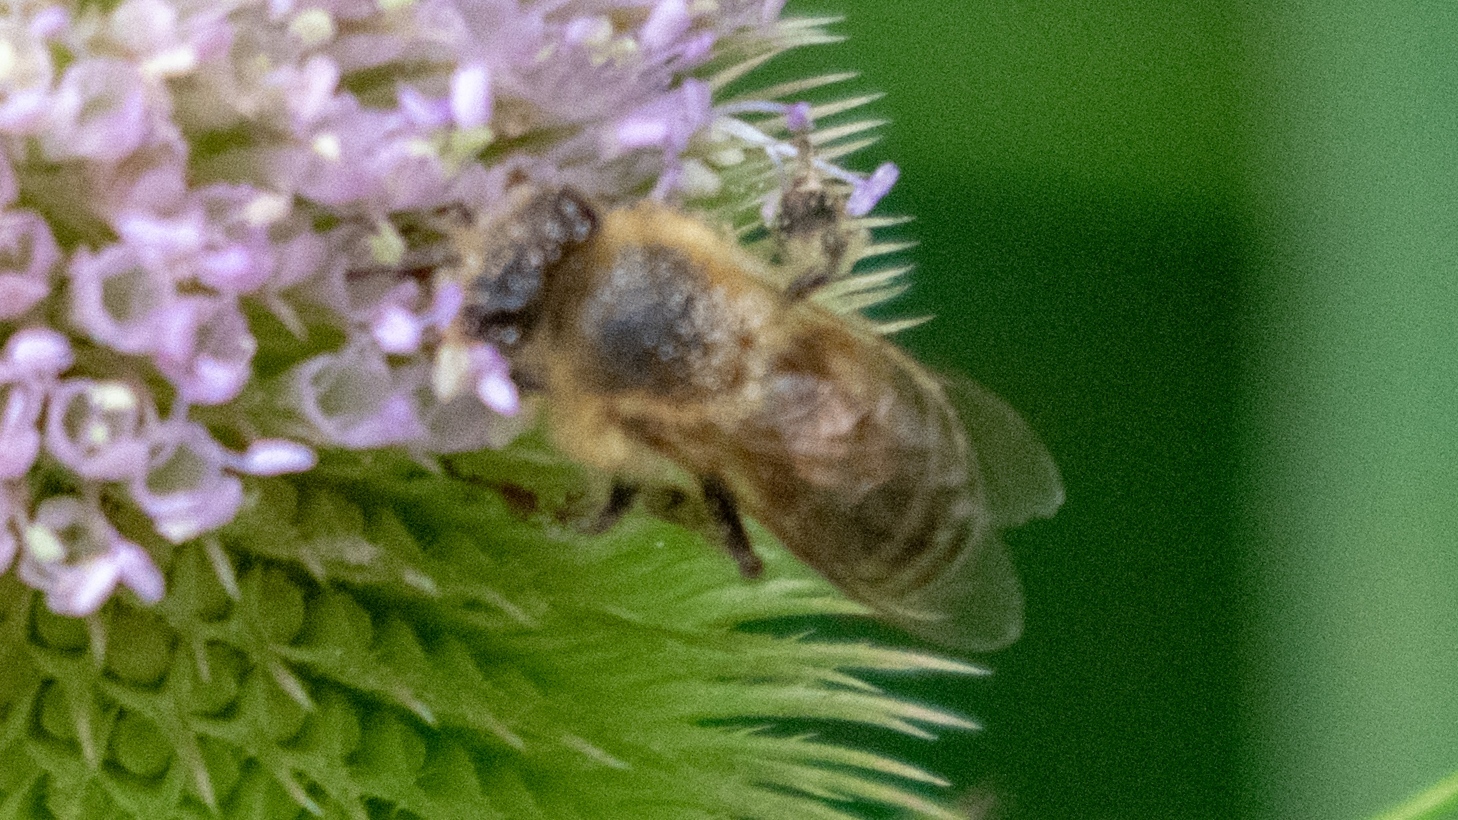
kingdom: Animalia
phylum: Arthropoda
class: Insecta
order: Hymenoptera
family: Apidae
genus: Apis
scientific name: Apis mellifera
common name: Honey bee
